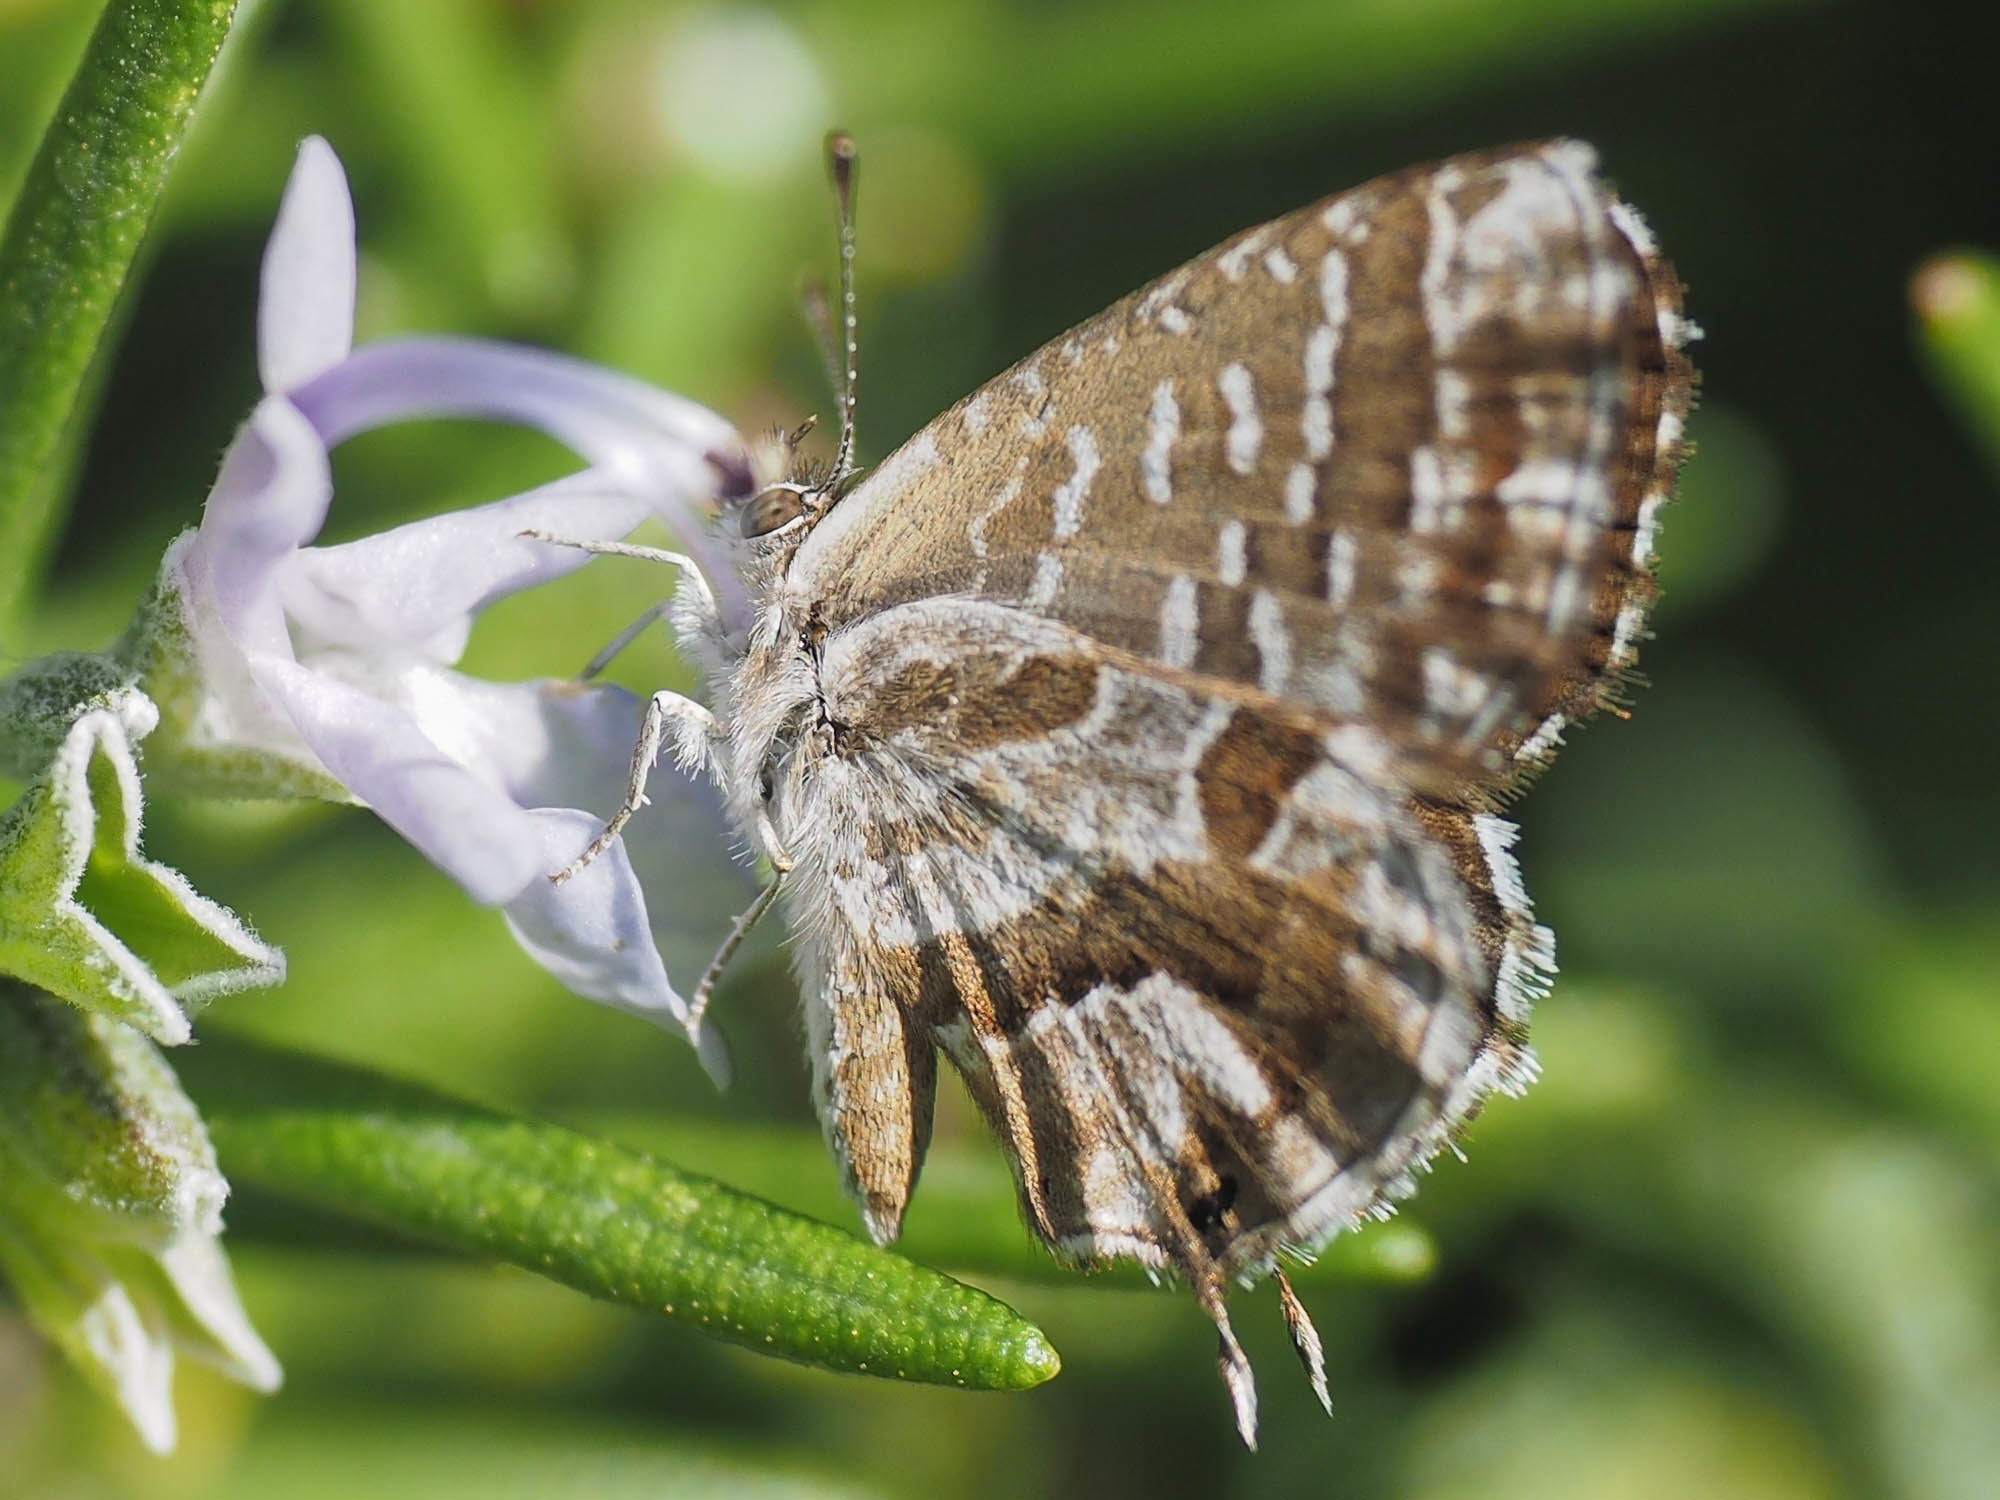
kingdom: Animalia
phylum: Arthropoda
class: Insecta
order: Lepidoptera
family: Lycaenidae
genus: Cacyreus
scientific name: Cacyreus marshalli
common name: Geranium bronze
